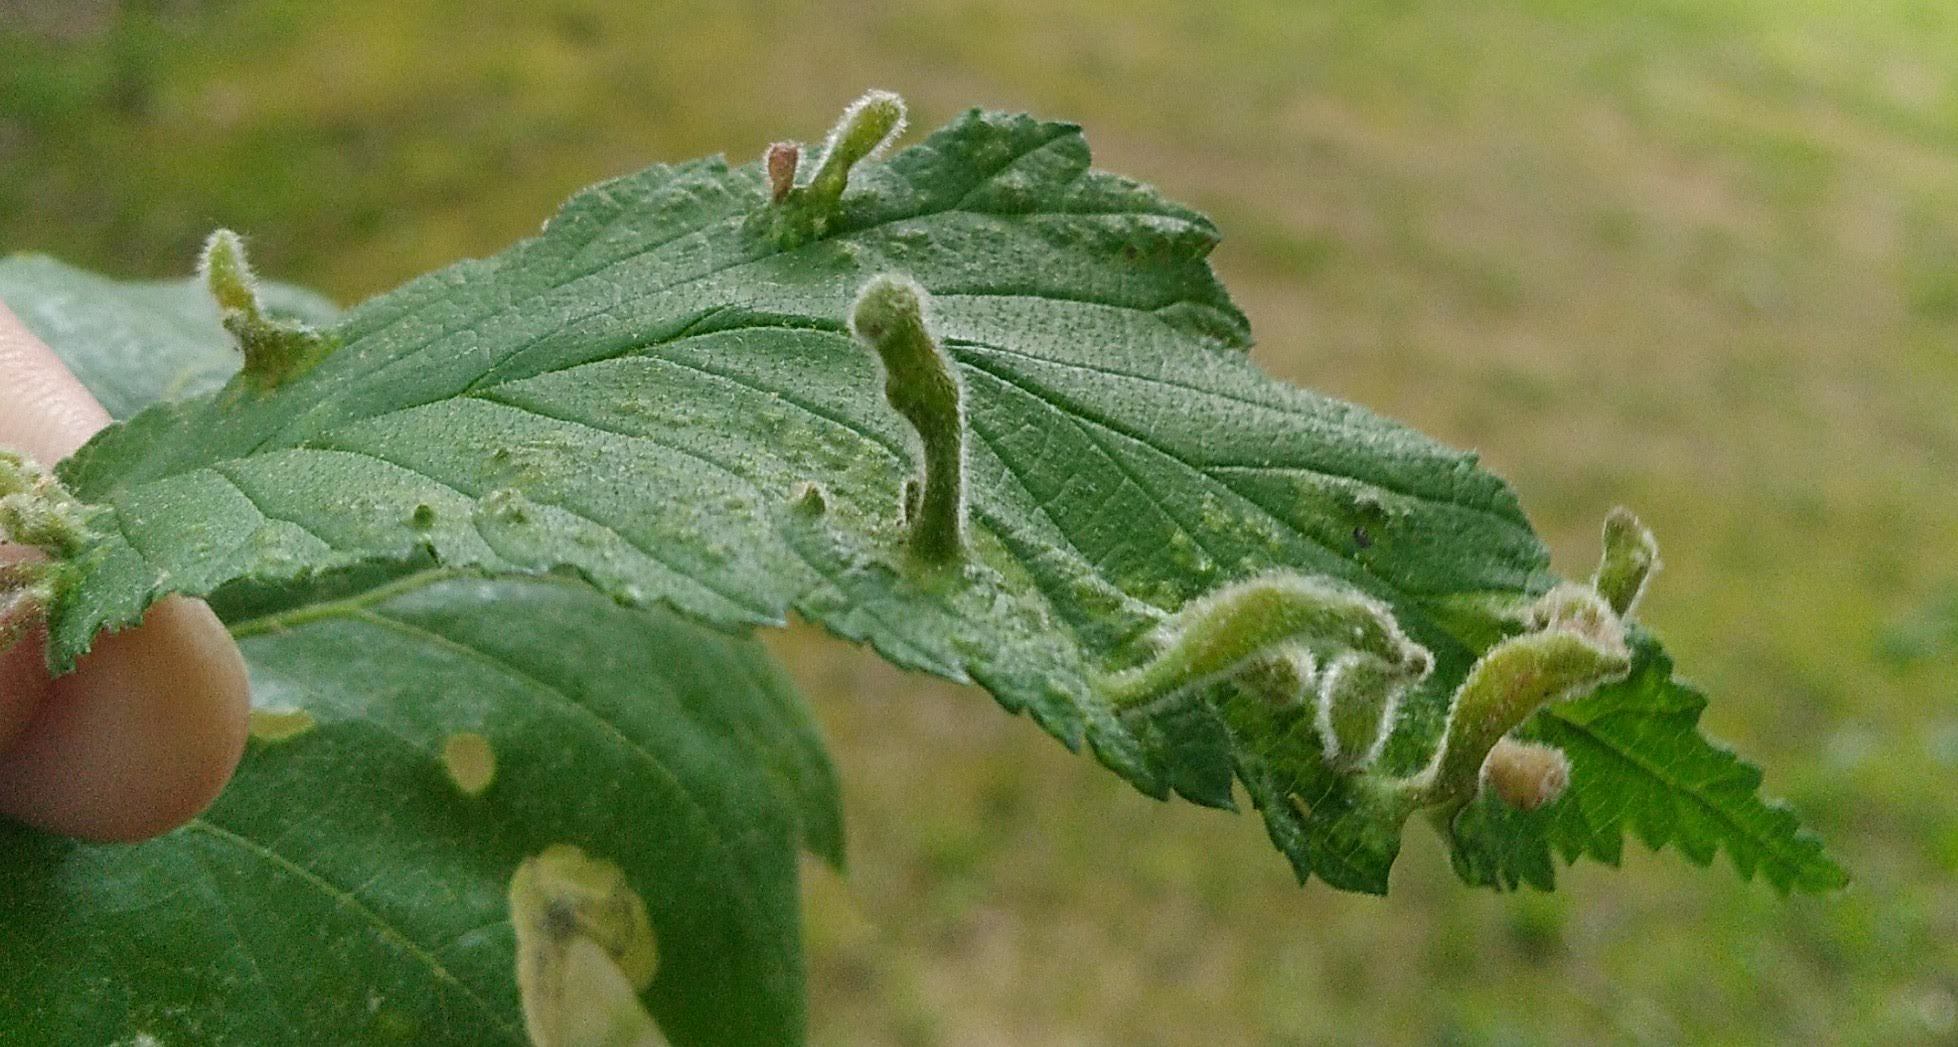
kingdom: Animalia
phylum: Arthropoda
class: Insecta
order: Hemiptera
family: Aphididae
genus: Tetraneura
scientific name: Tetraneura nigriabdominalis
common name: Aphid
